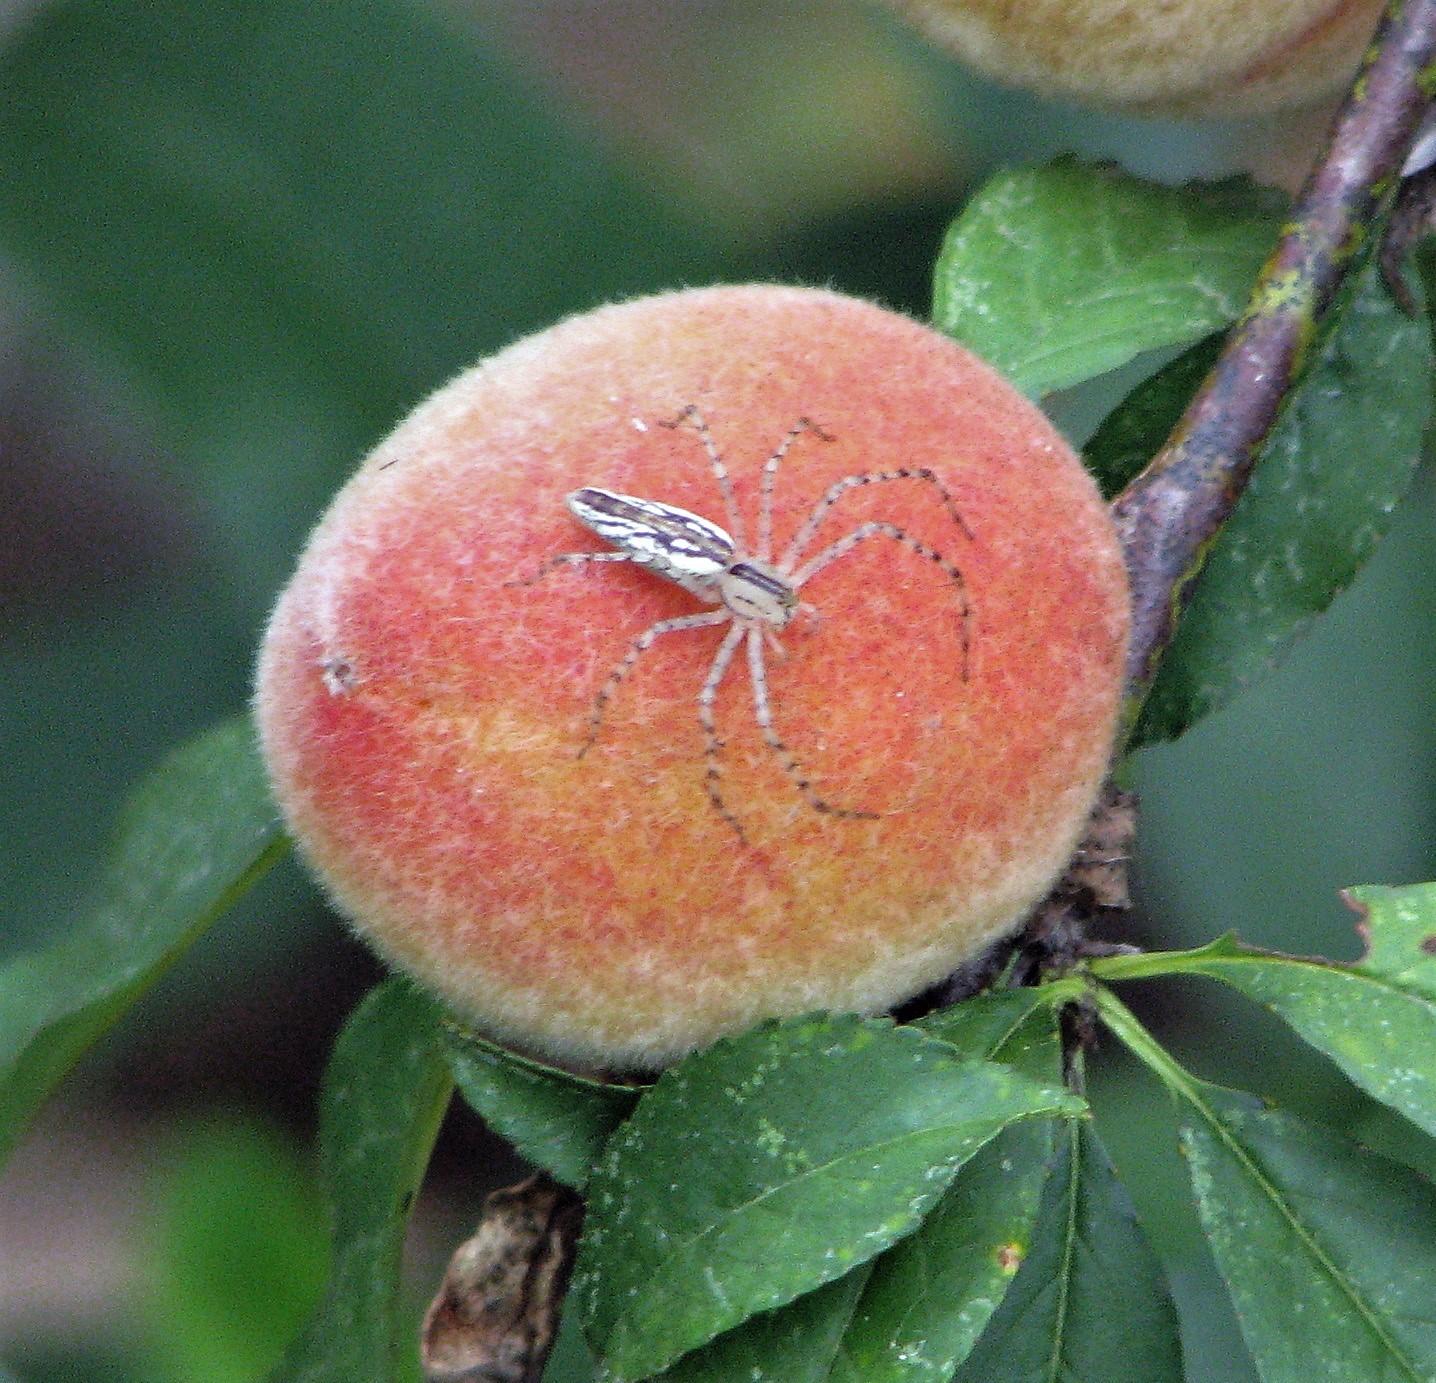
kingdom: Animalia
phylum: Arthropoda
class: Arachnida
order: Araneae
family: Oxyopidae
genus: Peucetia
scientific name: Peucetia rubrolineata
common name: Lynx spiders
